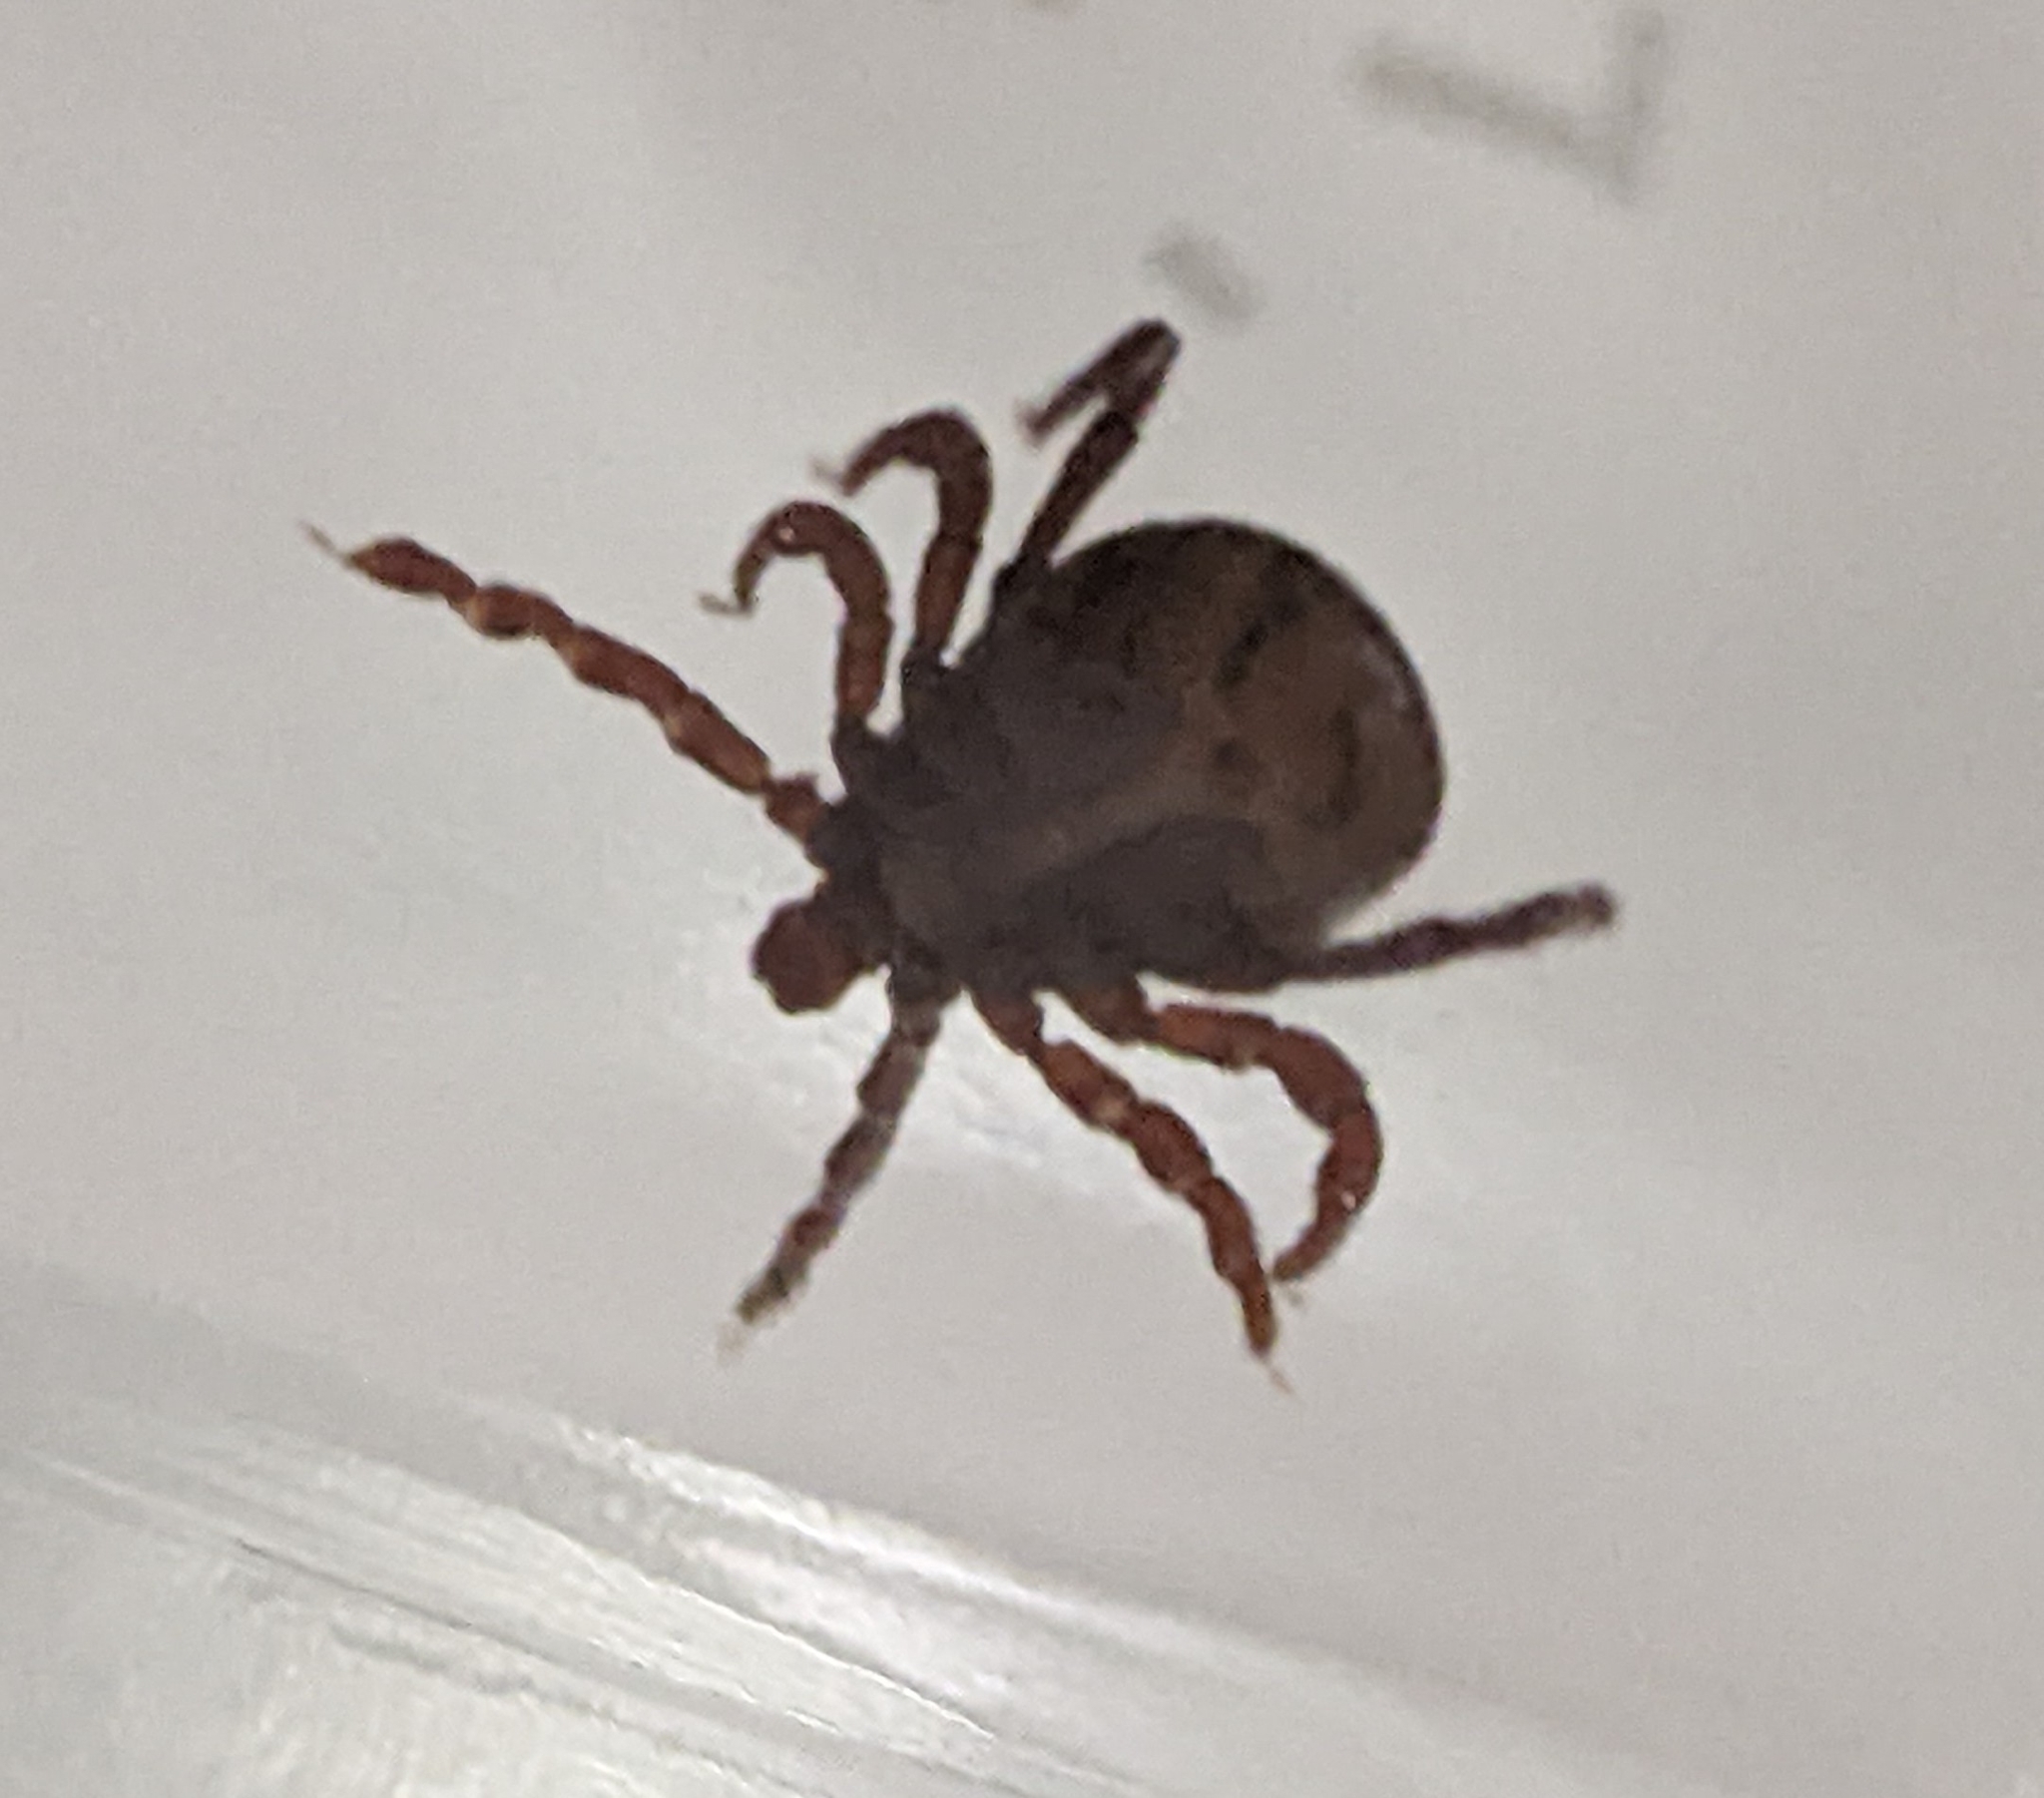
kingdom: Animalia
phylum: Arthropoda
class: Arachnida
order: Ixodida
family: Ixodidae
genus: Dermacentor
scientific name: Dermacentor variabilis
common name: American dog tick
